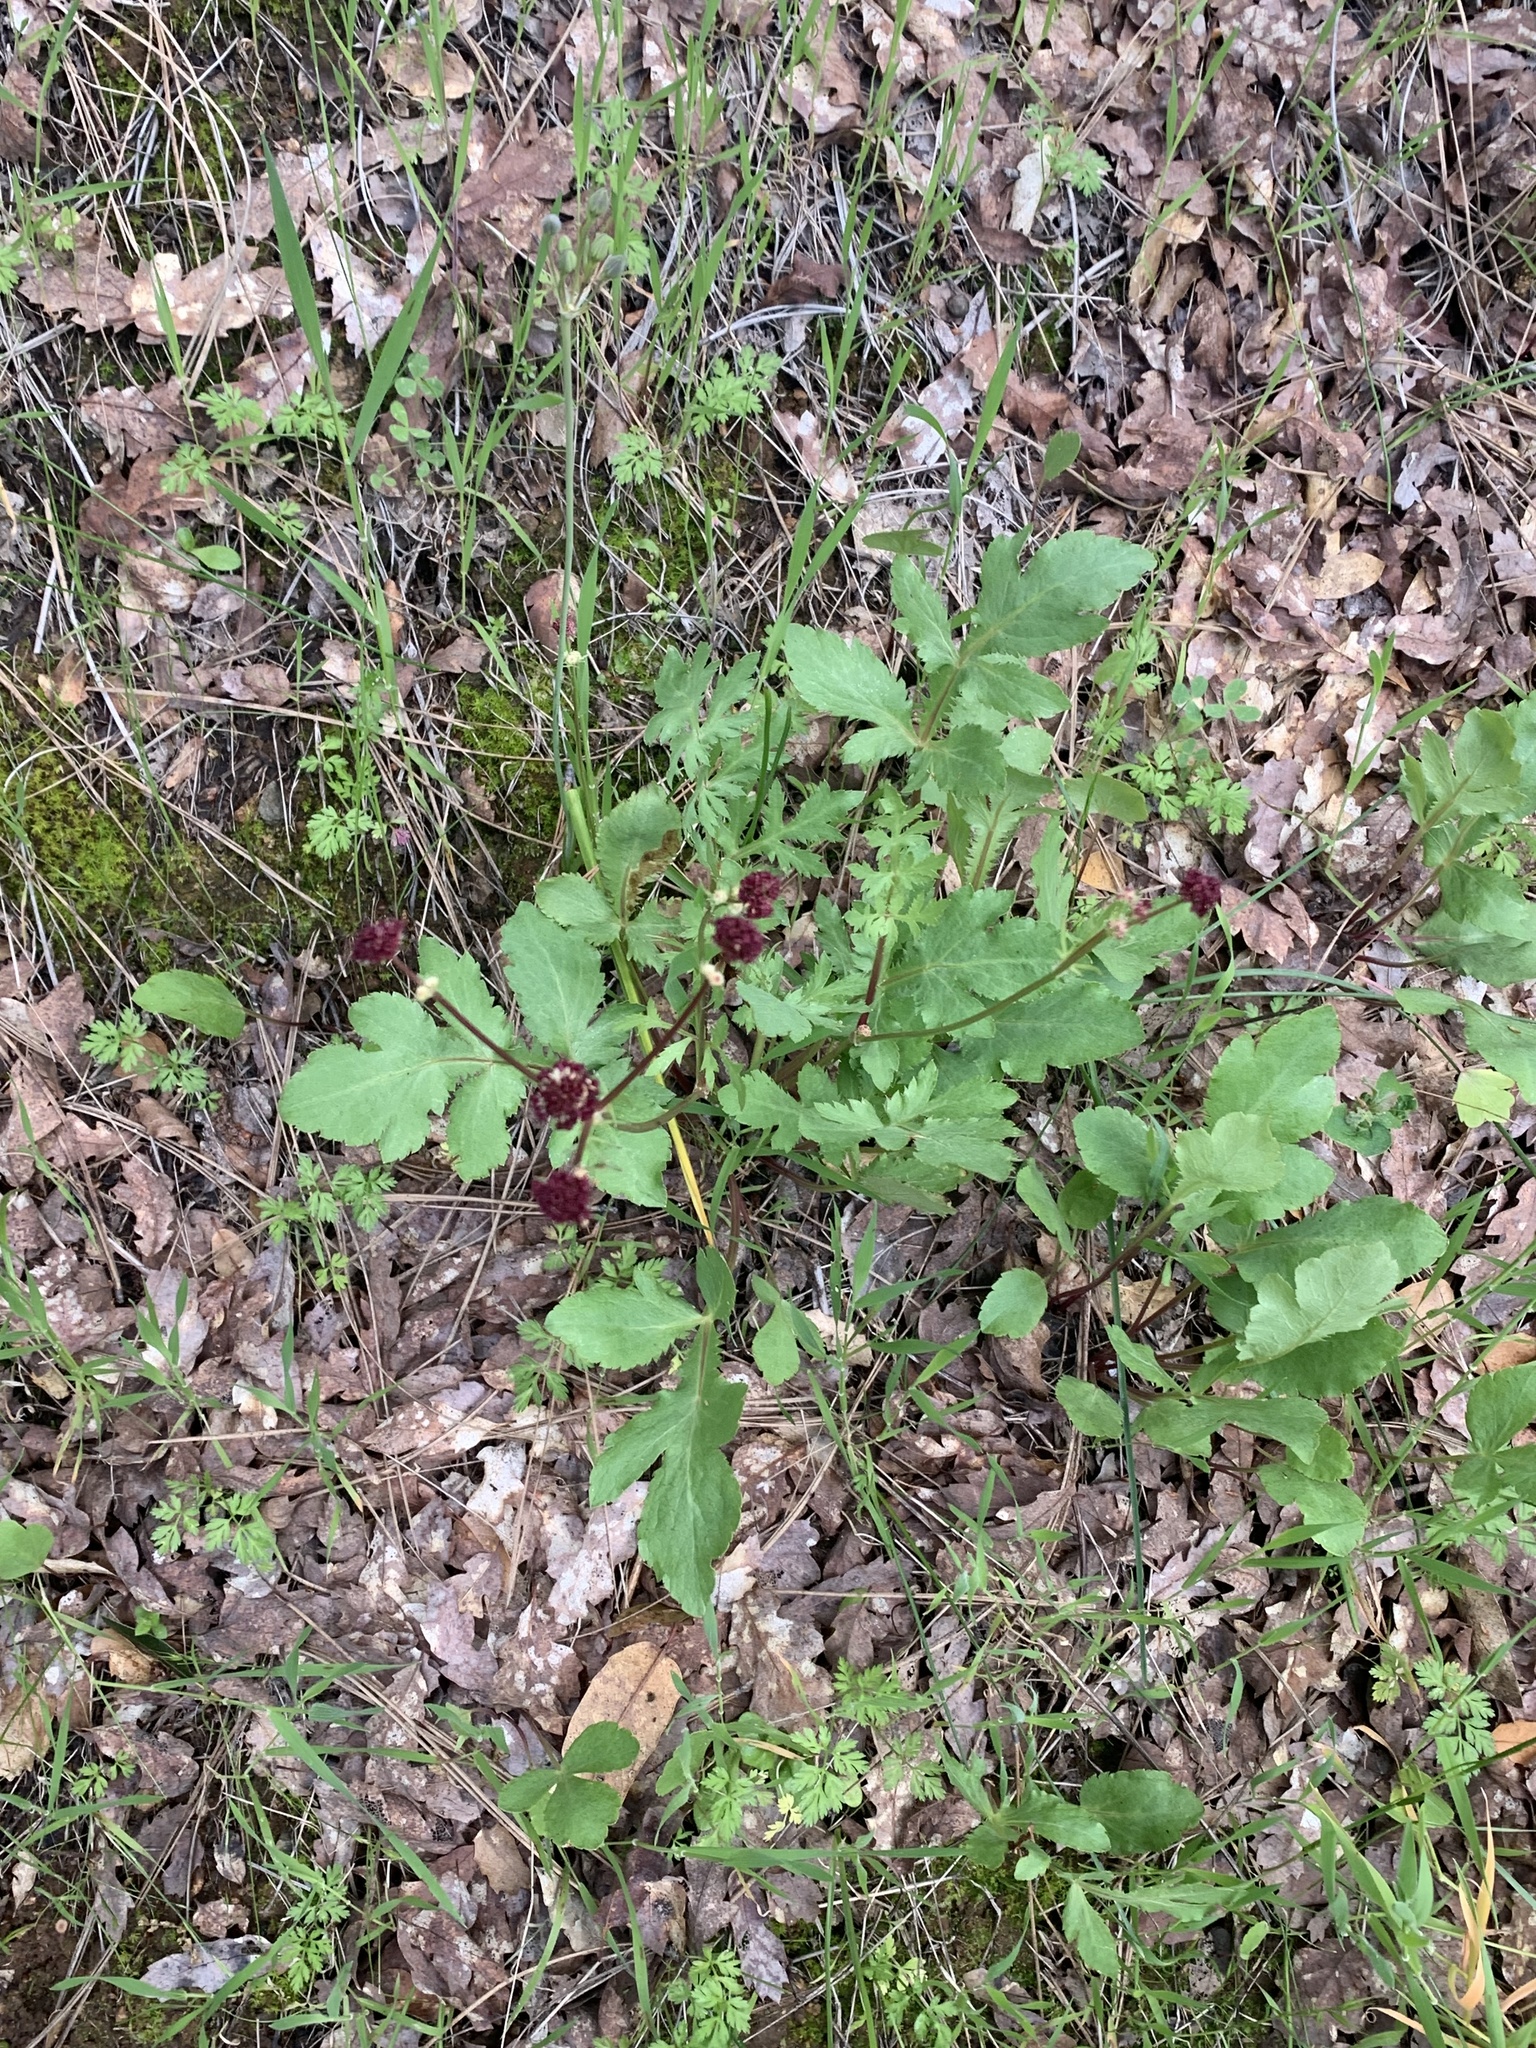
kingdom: Plantae
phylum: Tracheophyta
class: Magnoliopsida
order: Apiales
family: Apiaceae
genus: Sanicula
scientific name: Sanicula bipinnatifida
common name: Shoe-buttons
